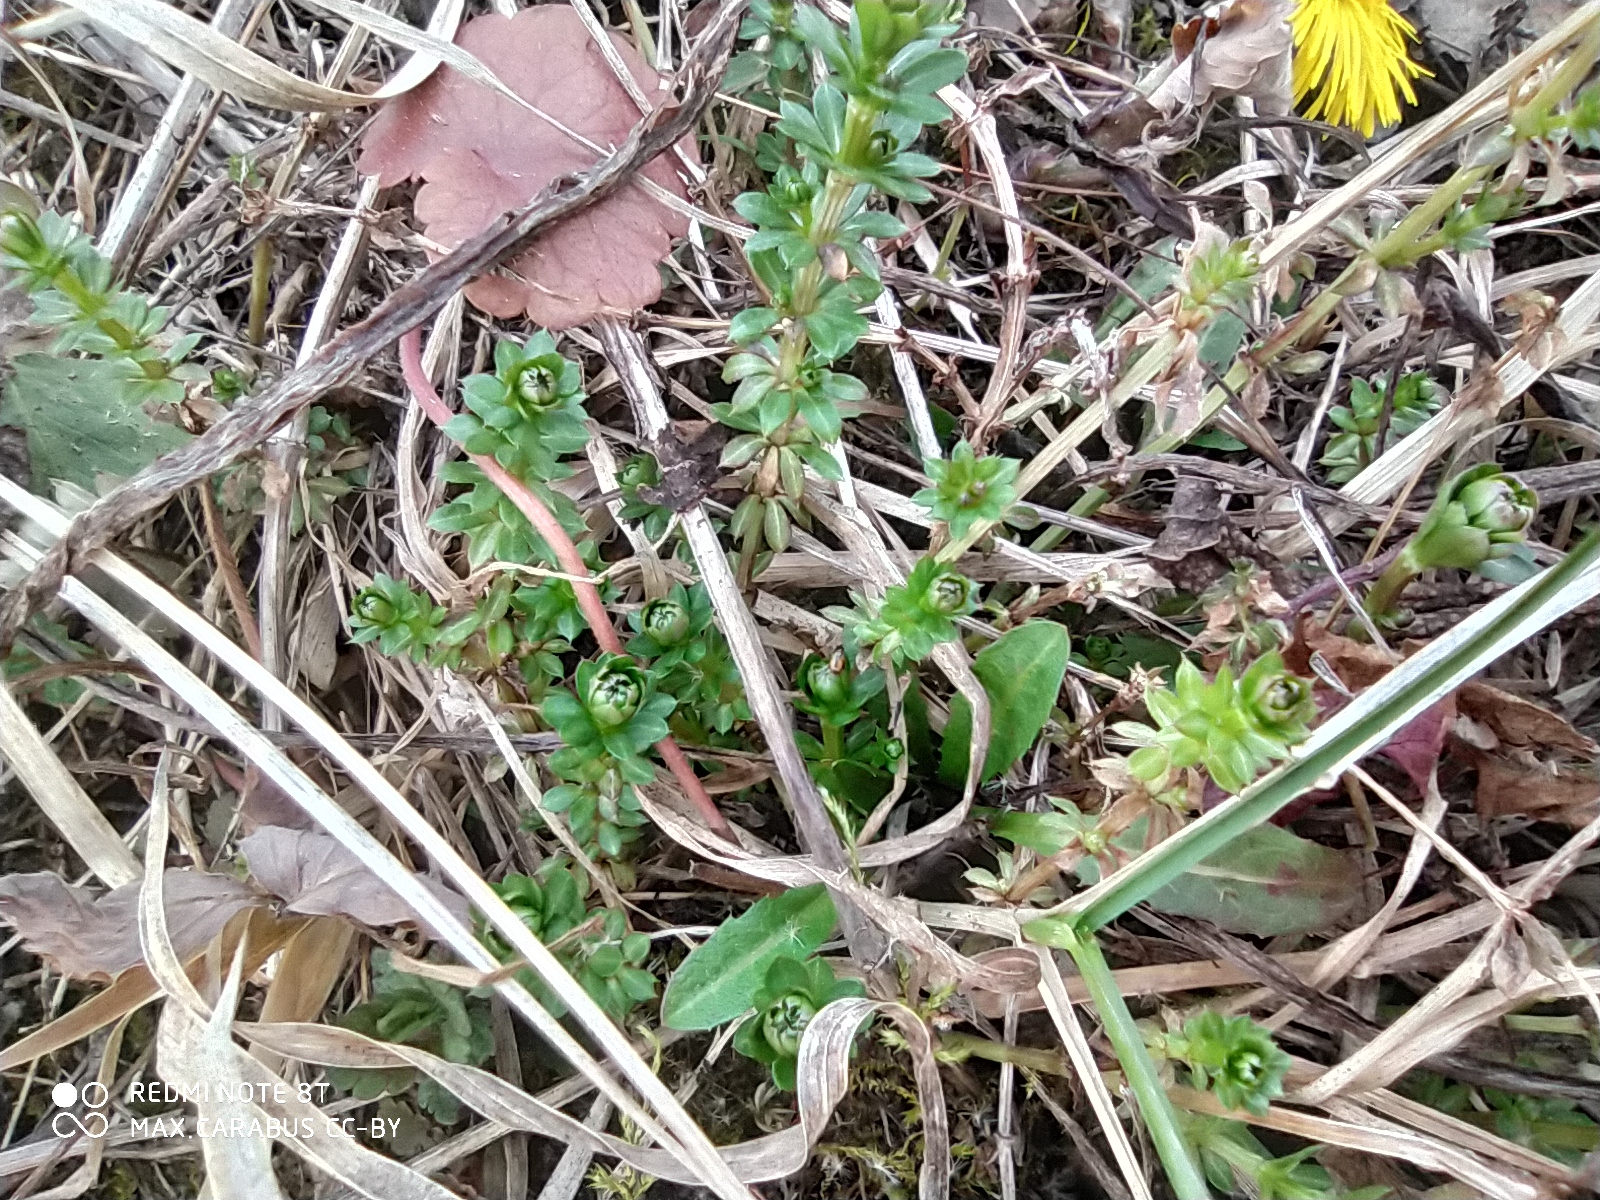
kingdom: Plantae
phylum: Tracheophyta
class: Magnoliopsida
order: Gentianales
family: Rubiaceae
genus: Galium
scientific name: Galium mollugo
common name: Hedge bedstraw
